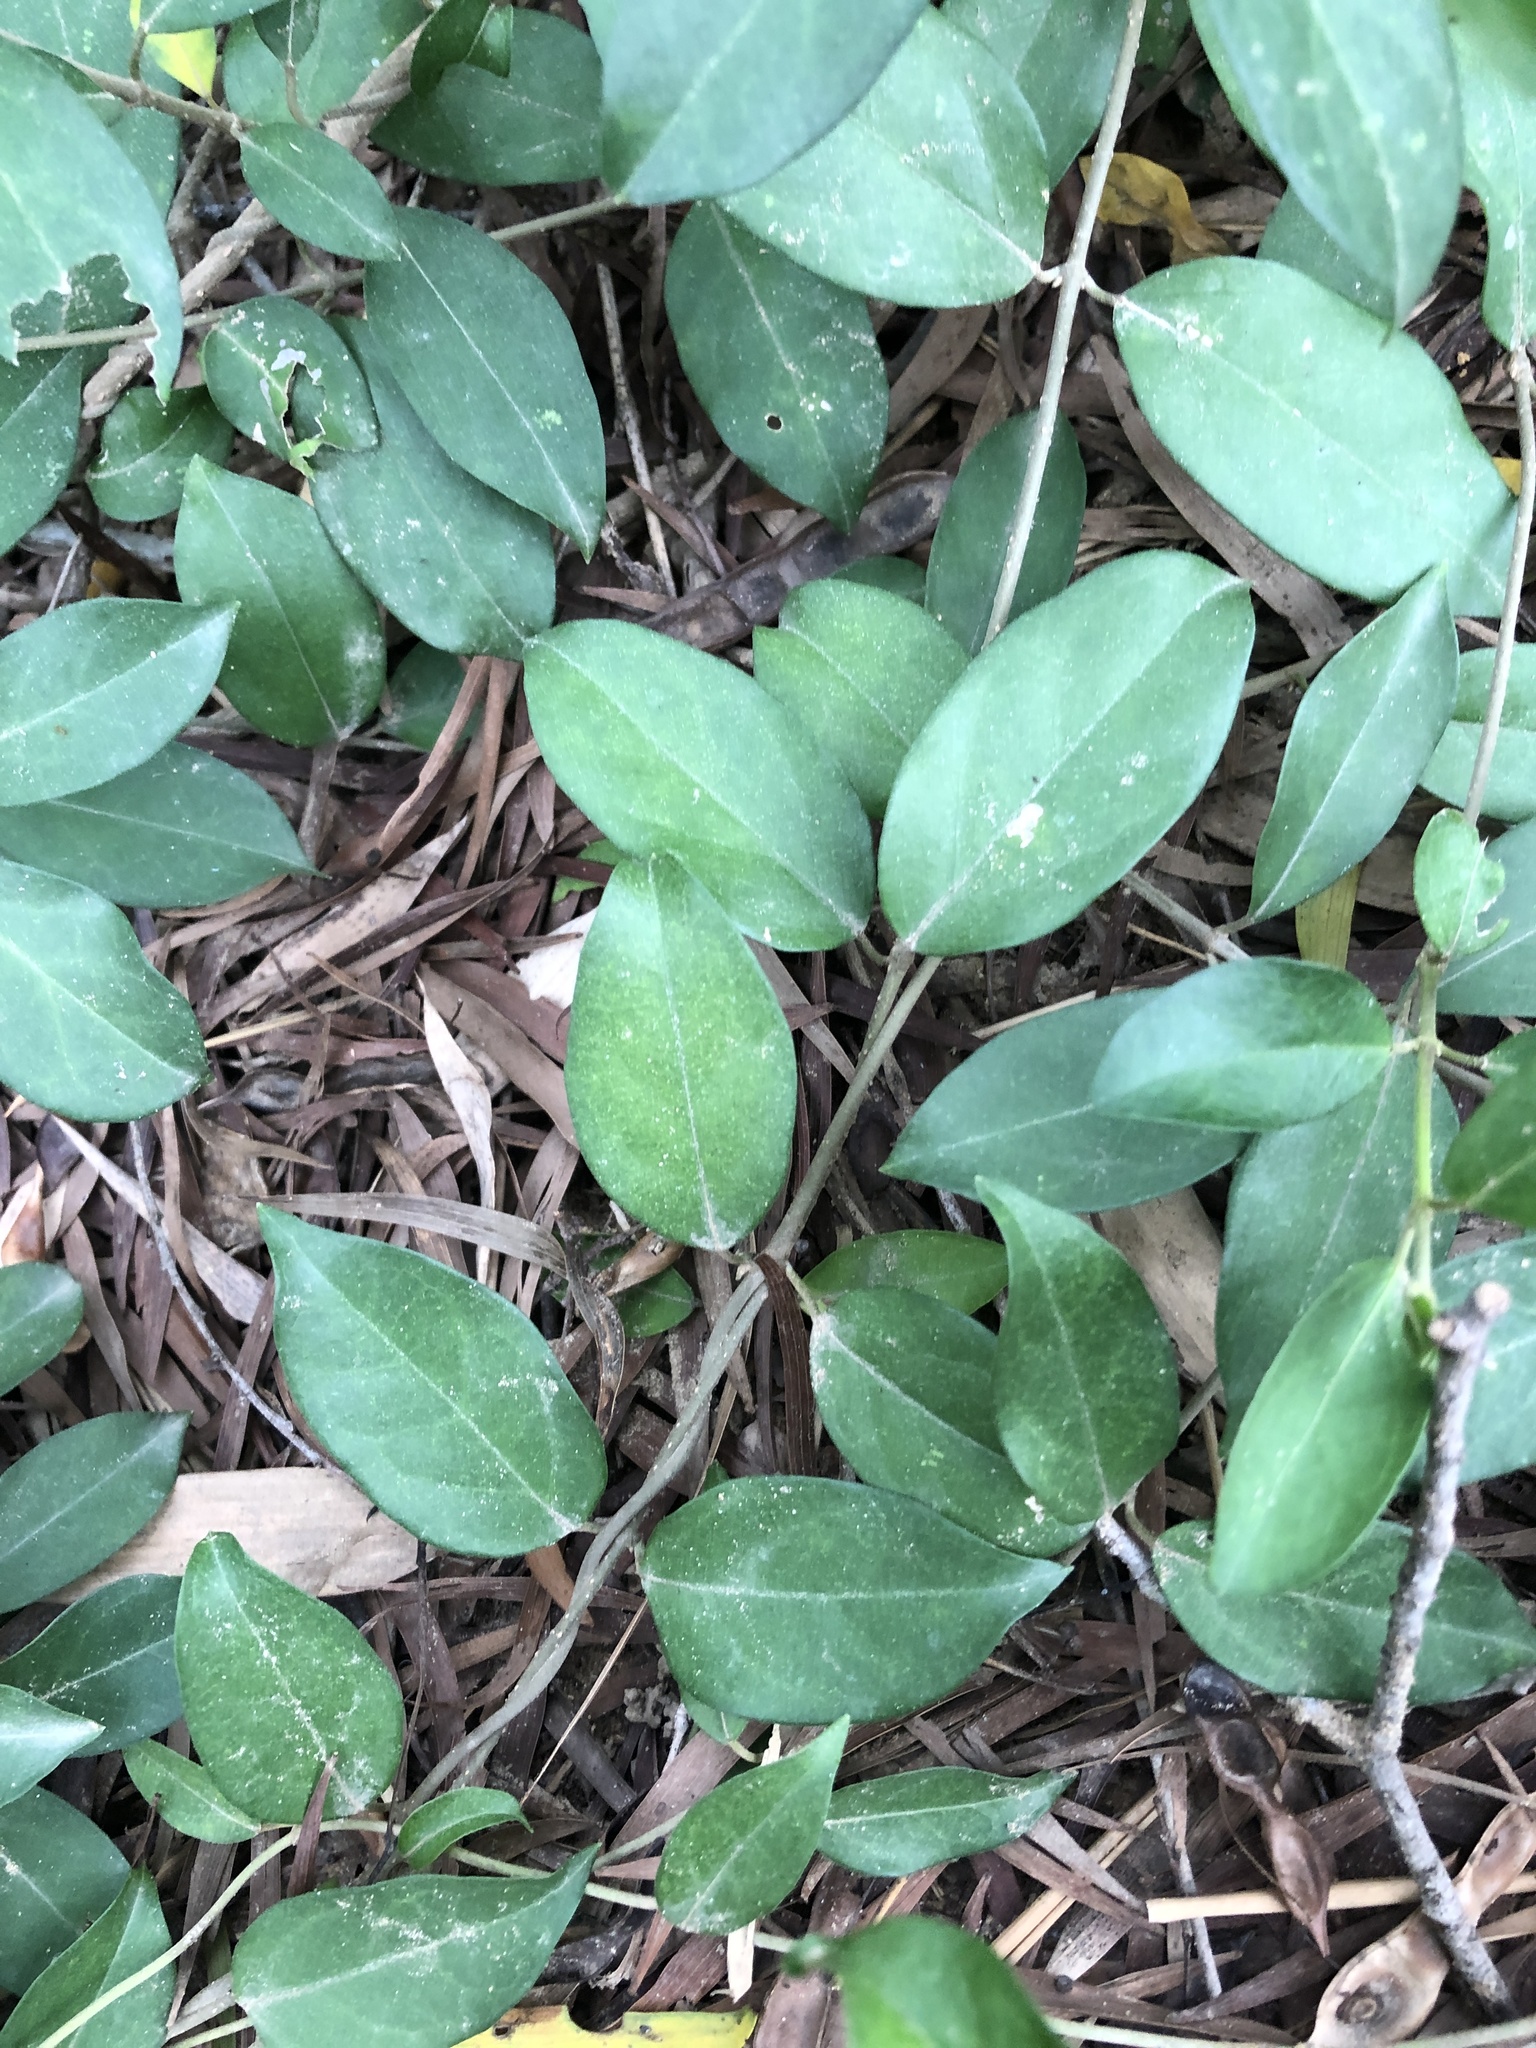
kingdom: Plantae
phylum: Tracheophyta
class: Magnoliopsida
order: Gentianales
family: Apocynaceae
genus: Gymnema
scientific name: Gymnema sylvestre
